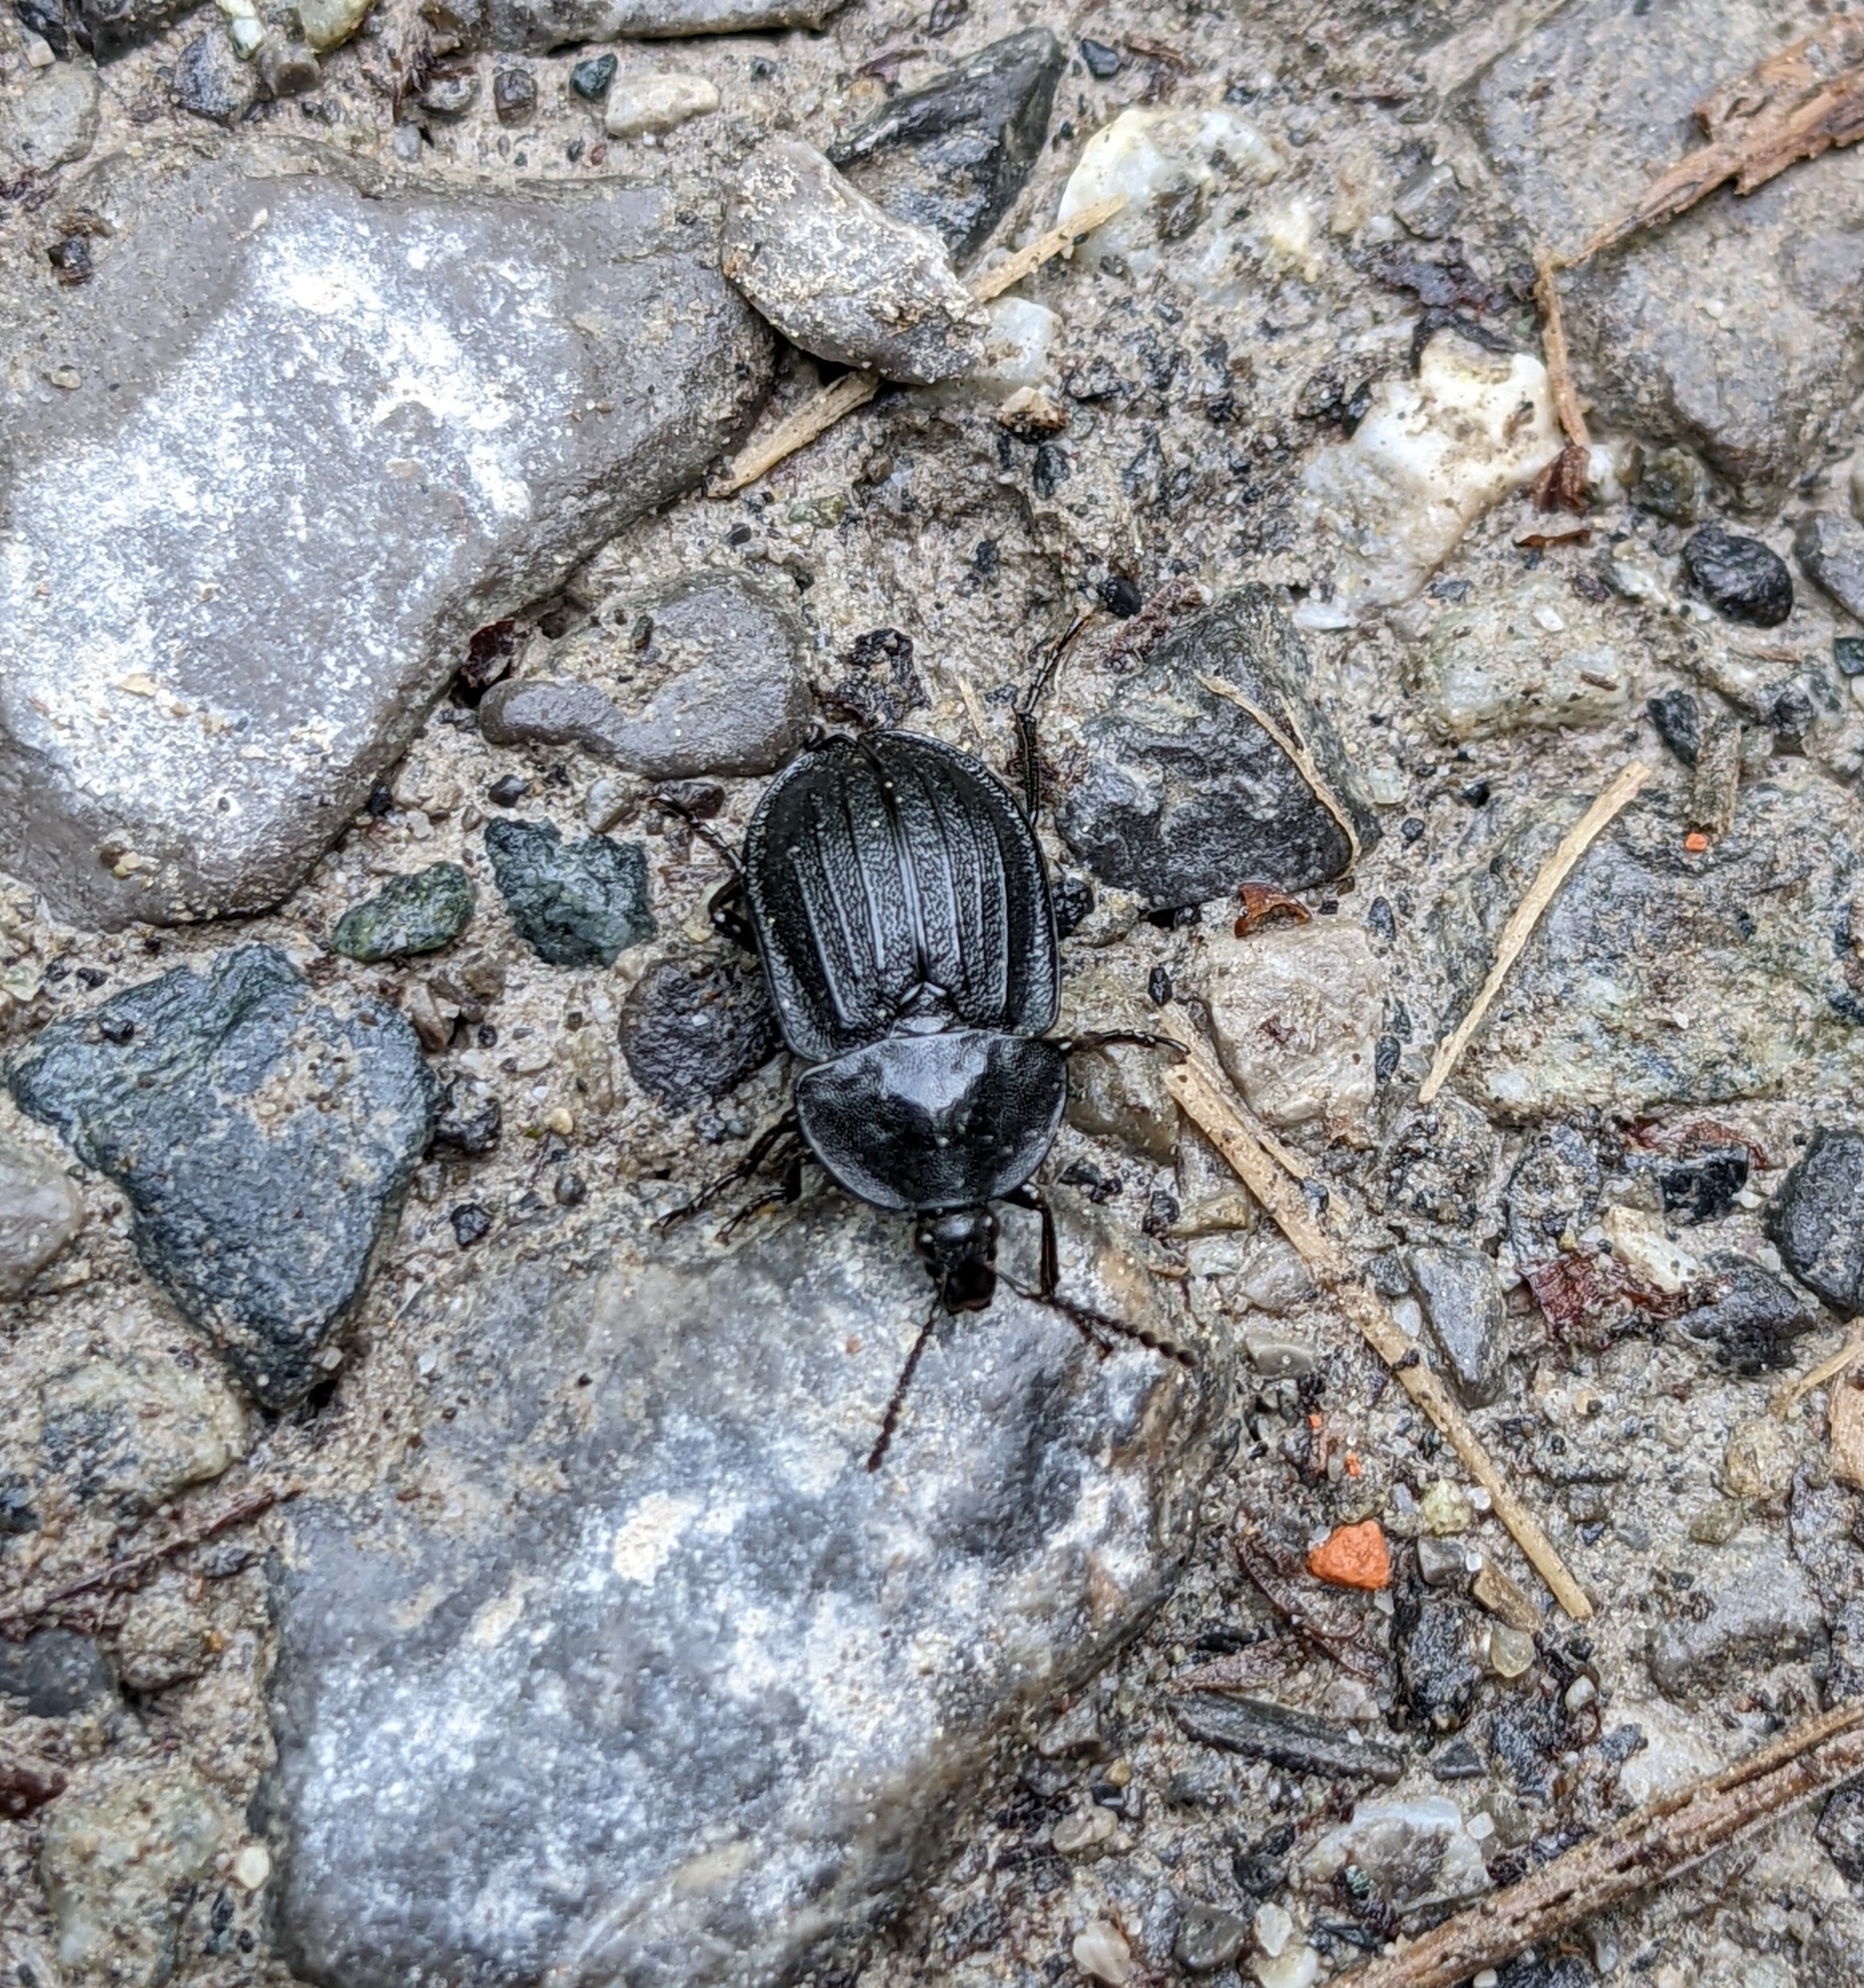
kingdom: Animalia
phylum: Arthropoda
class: Insecta
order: Coleoptera
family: Staphylinidae
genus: Silpha
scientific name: Silpha atrata
